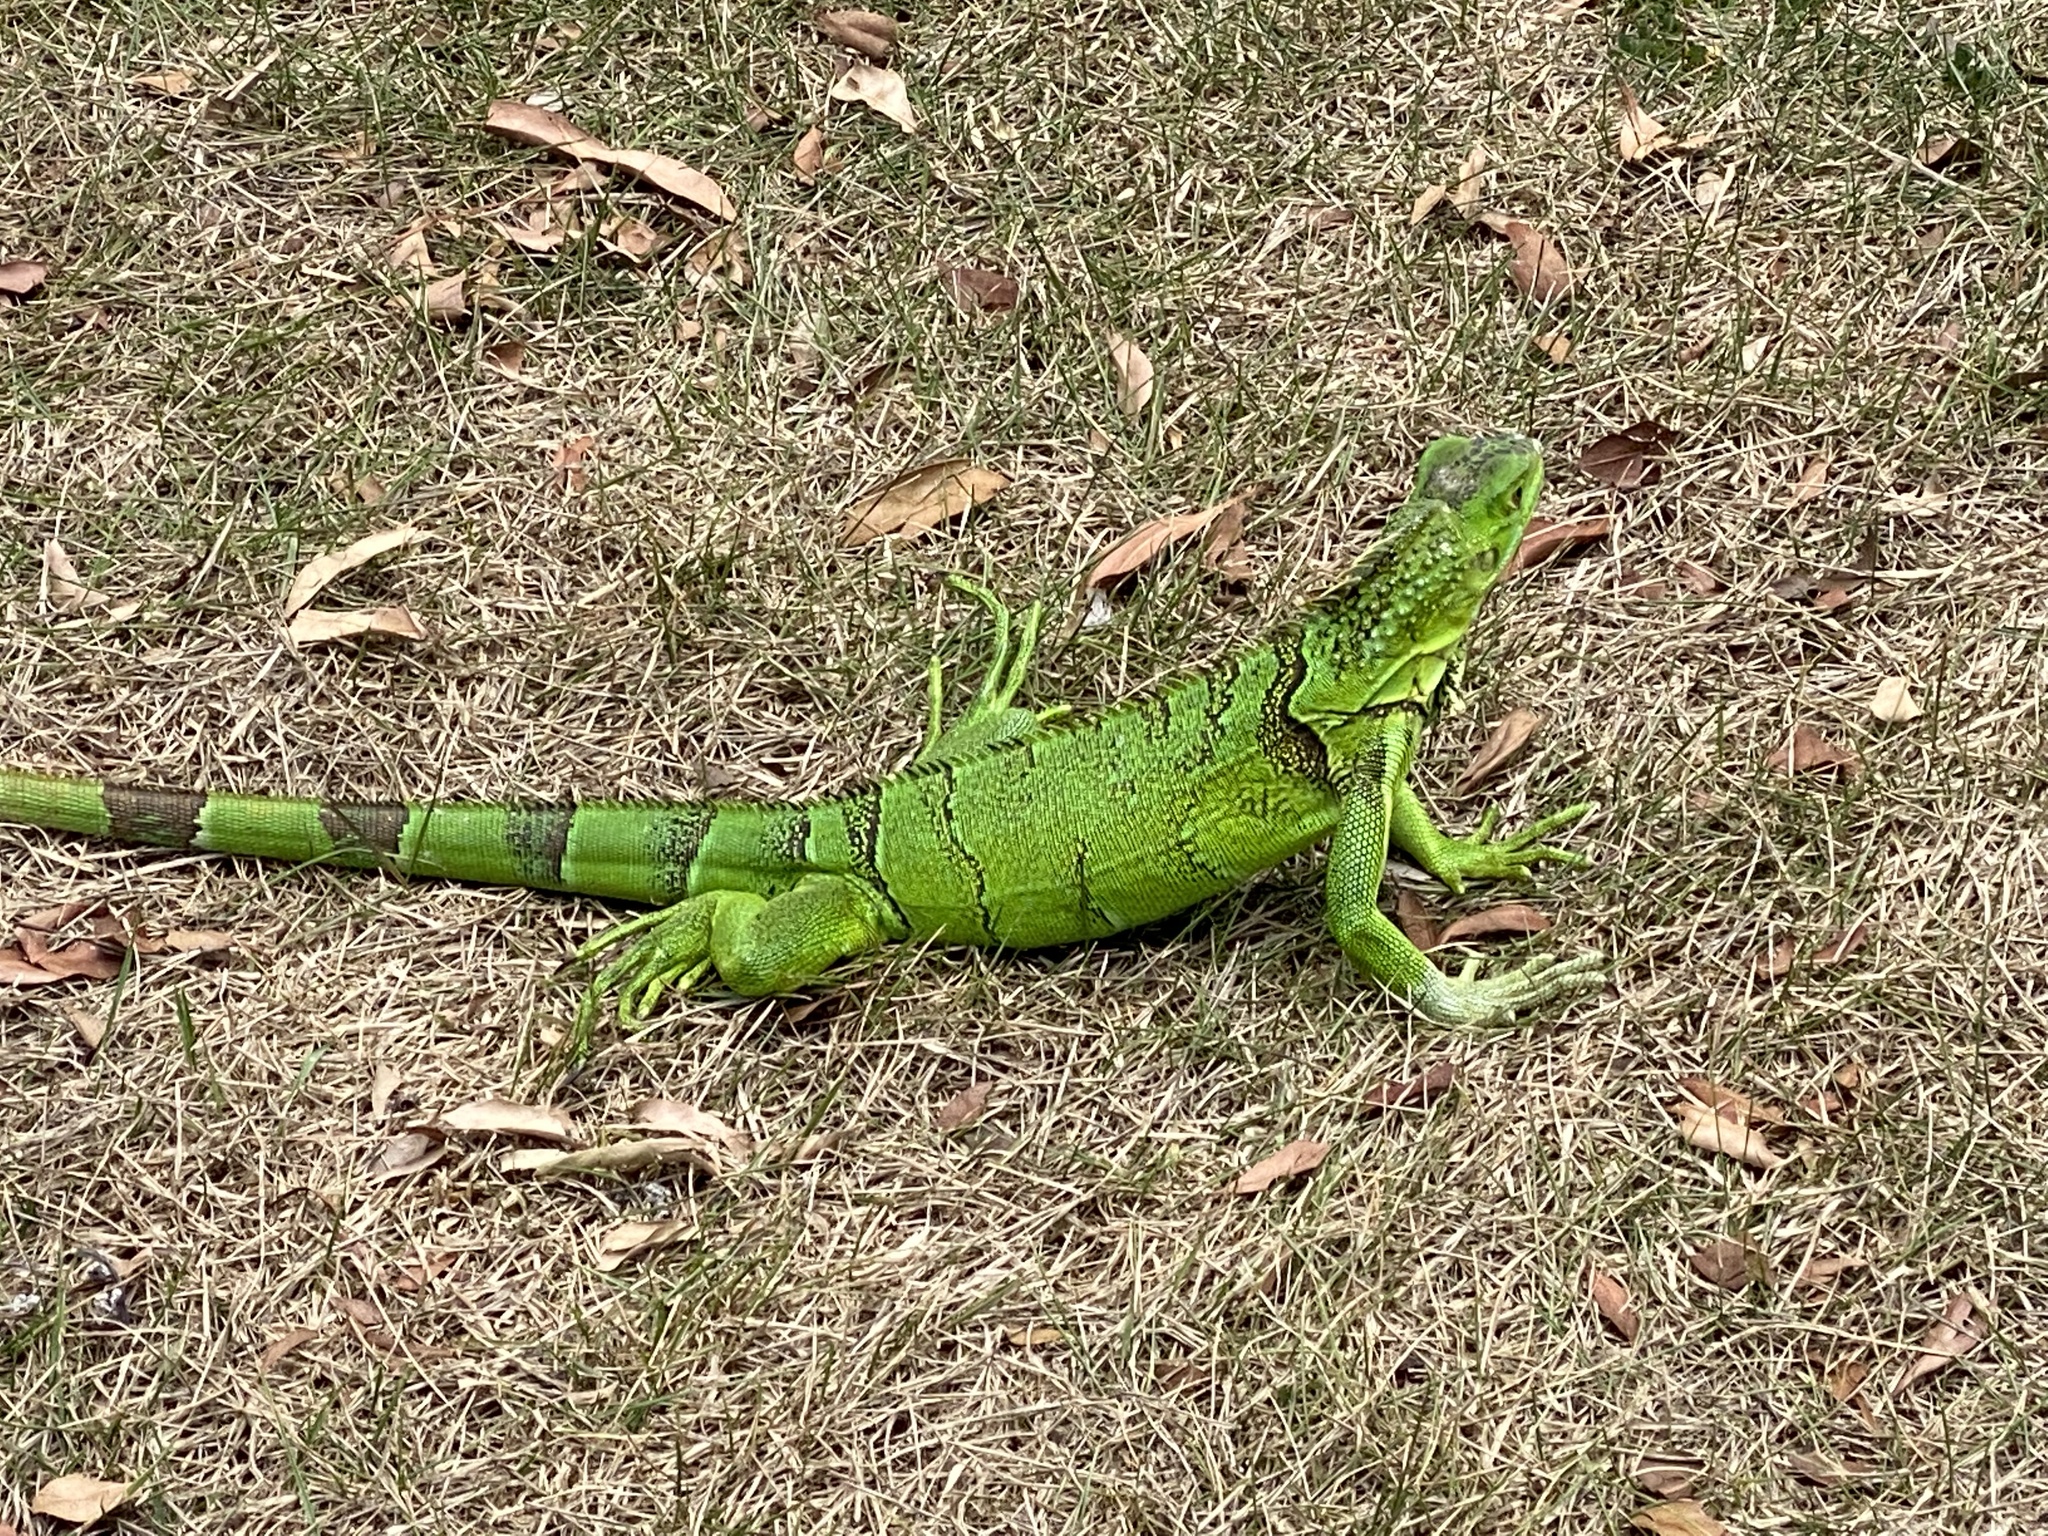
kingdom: Animalia
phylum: Chordata
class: Squamata
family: Iguanidae
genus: Iguana
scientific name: Iguana iguana
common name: Green iguana
